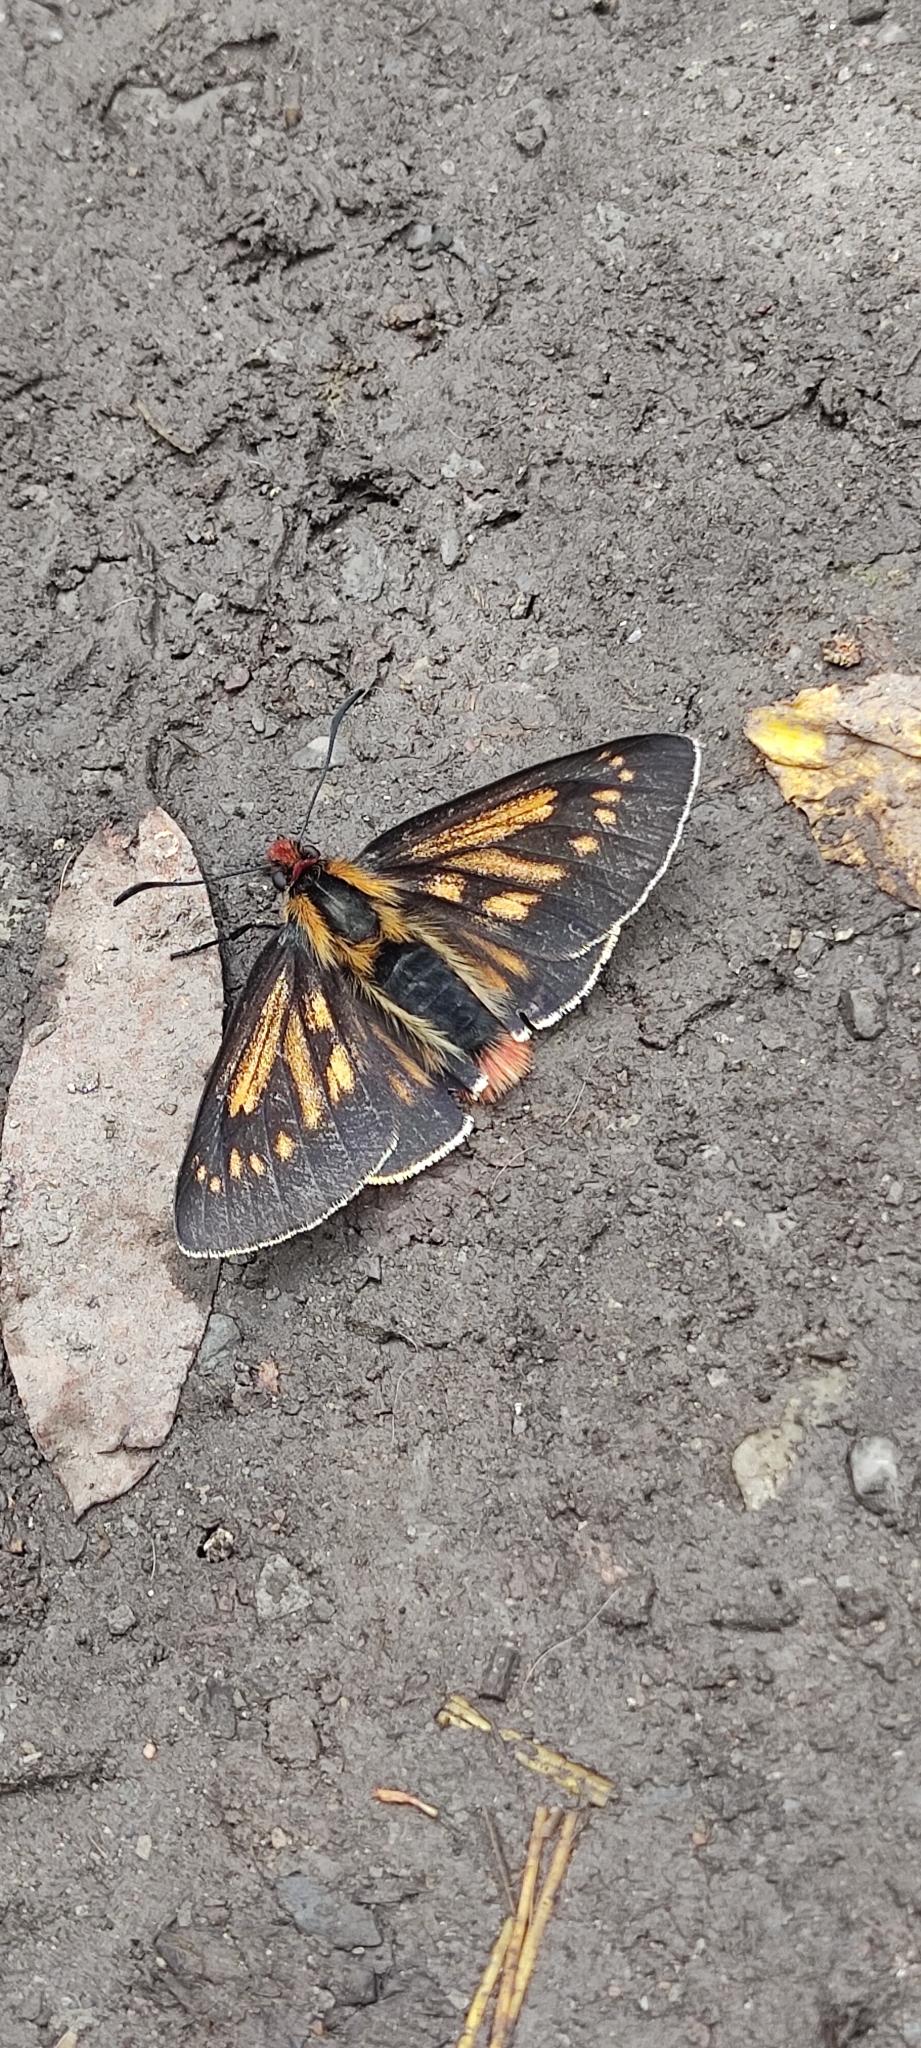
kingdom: Animalia
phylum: Arthropoda
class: Insecta
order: Lepidoptera
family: Hesperiidae
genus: Metardaris
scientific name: Metardaris cosinga
